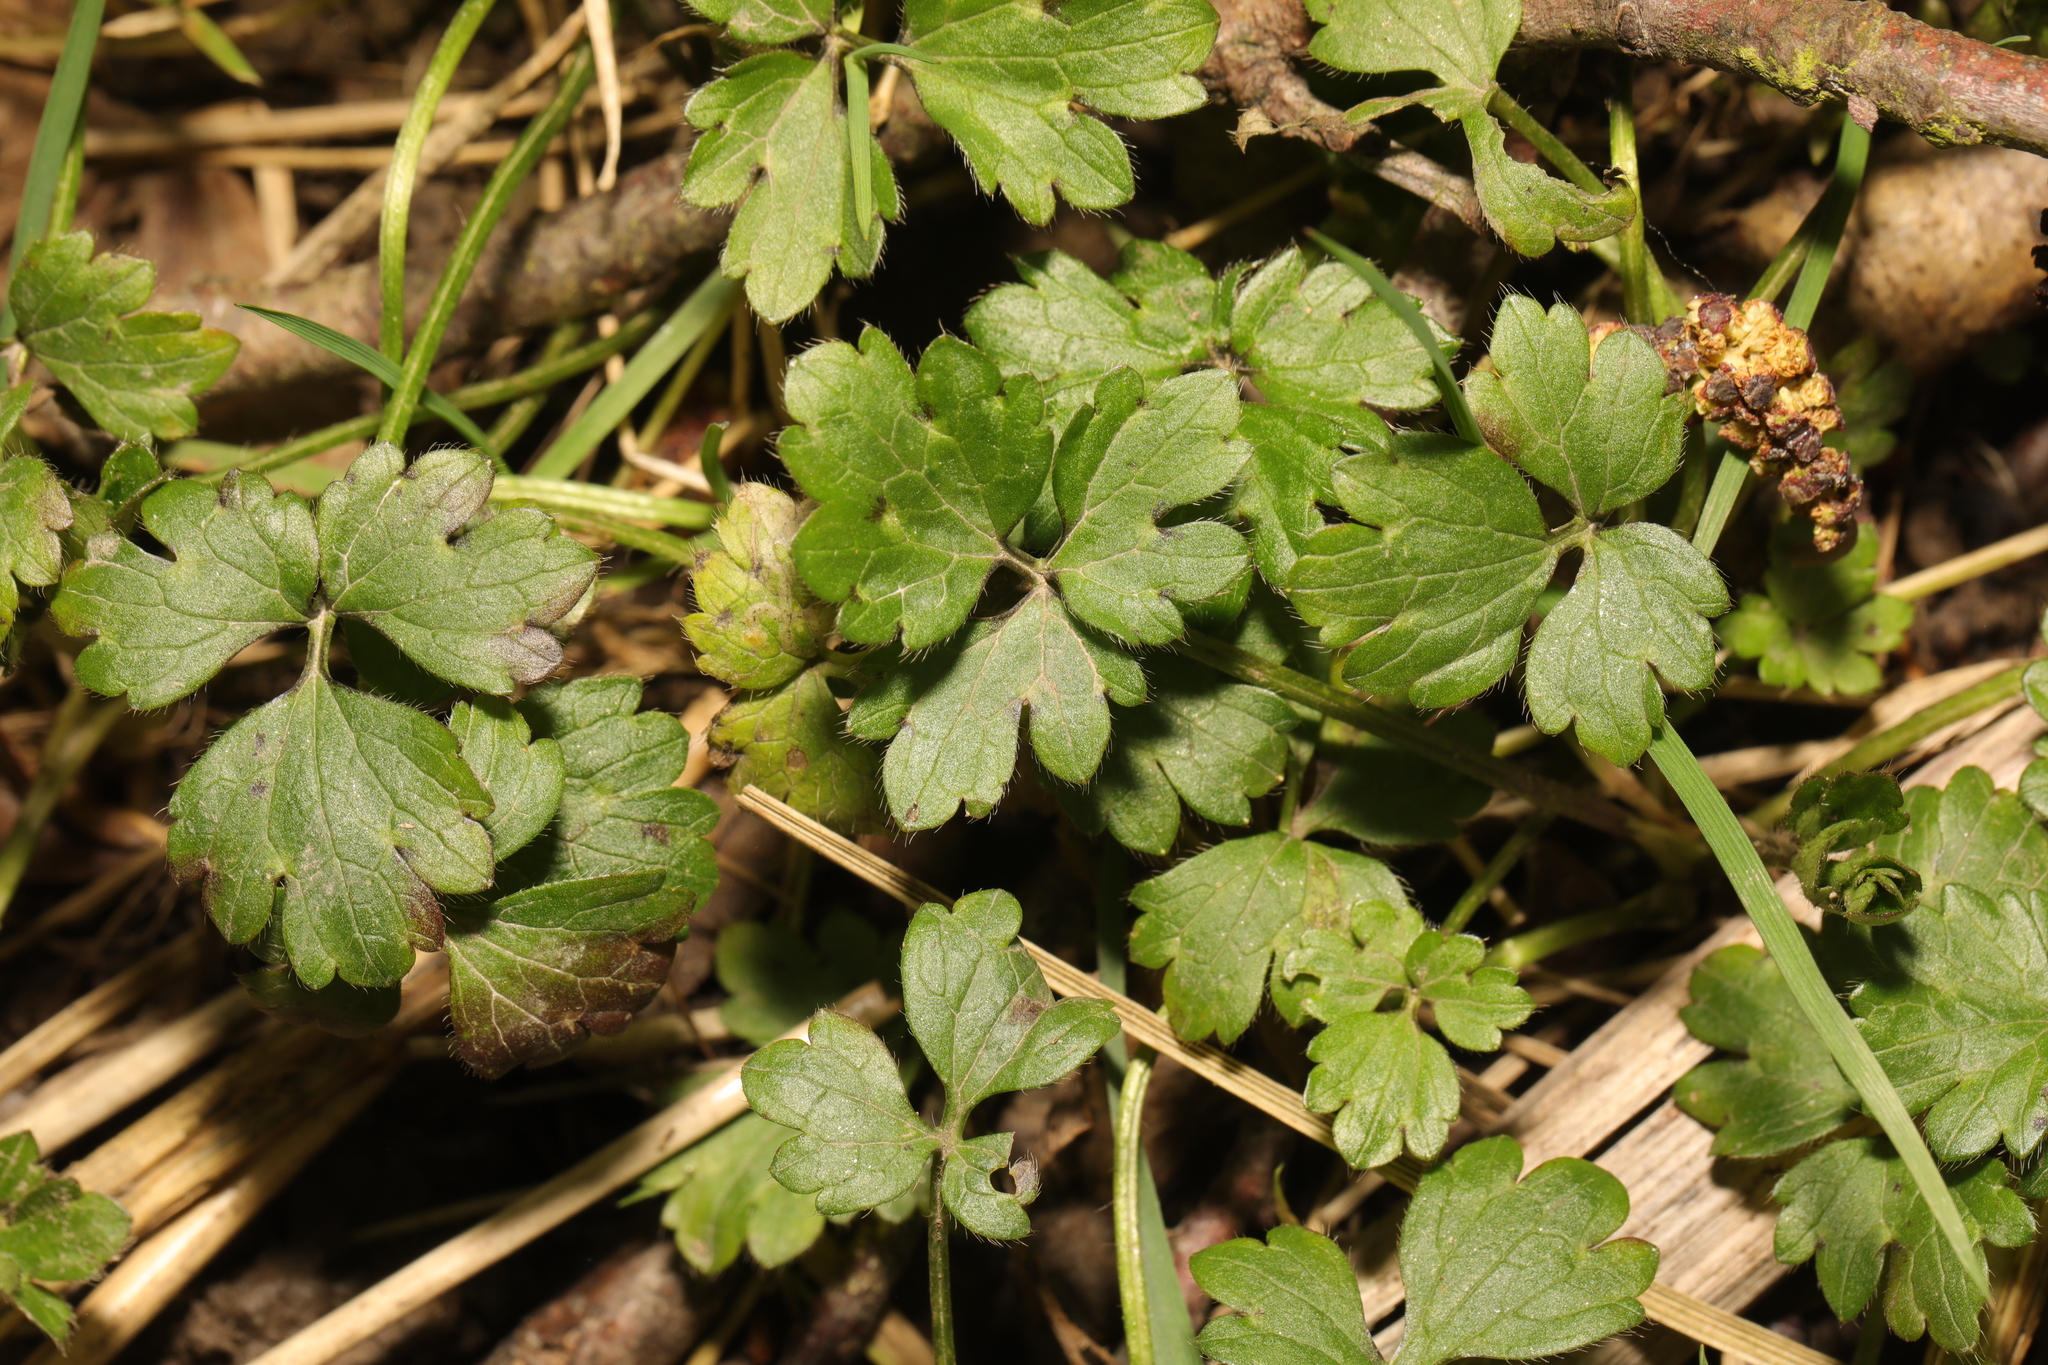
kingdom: Plantae
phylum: Tracheophyta
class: Magnoliopsida
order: Ranunculales
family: Ranunculaceae
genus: Ranunculus
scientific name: Ranunculus repens
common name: Creeping buttercup
